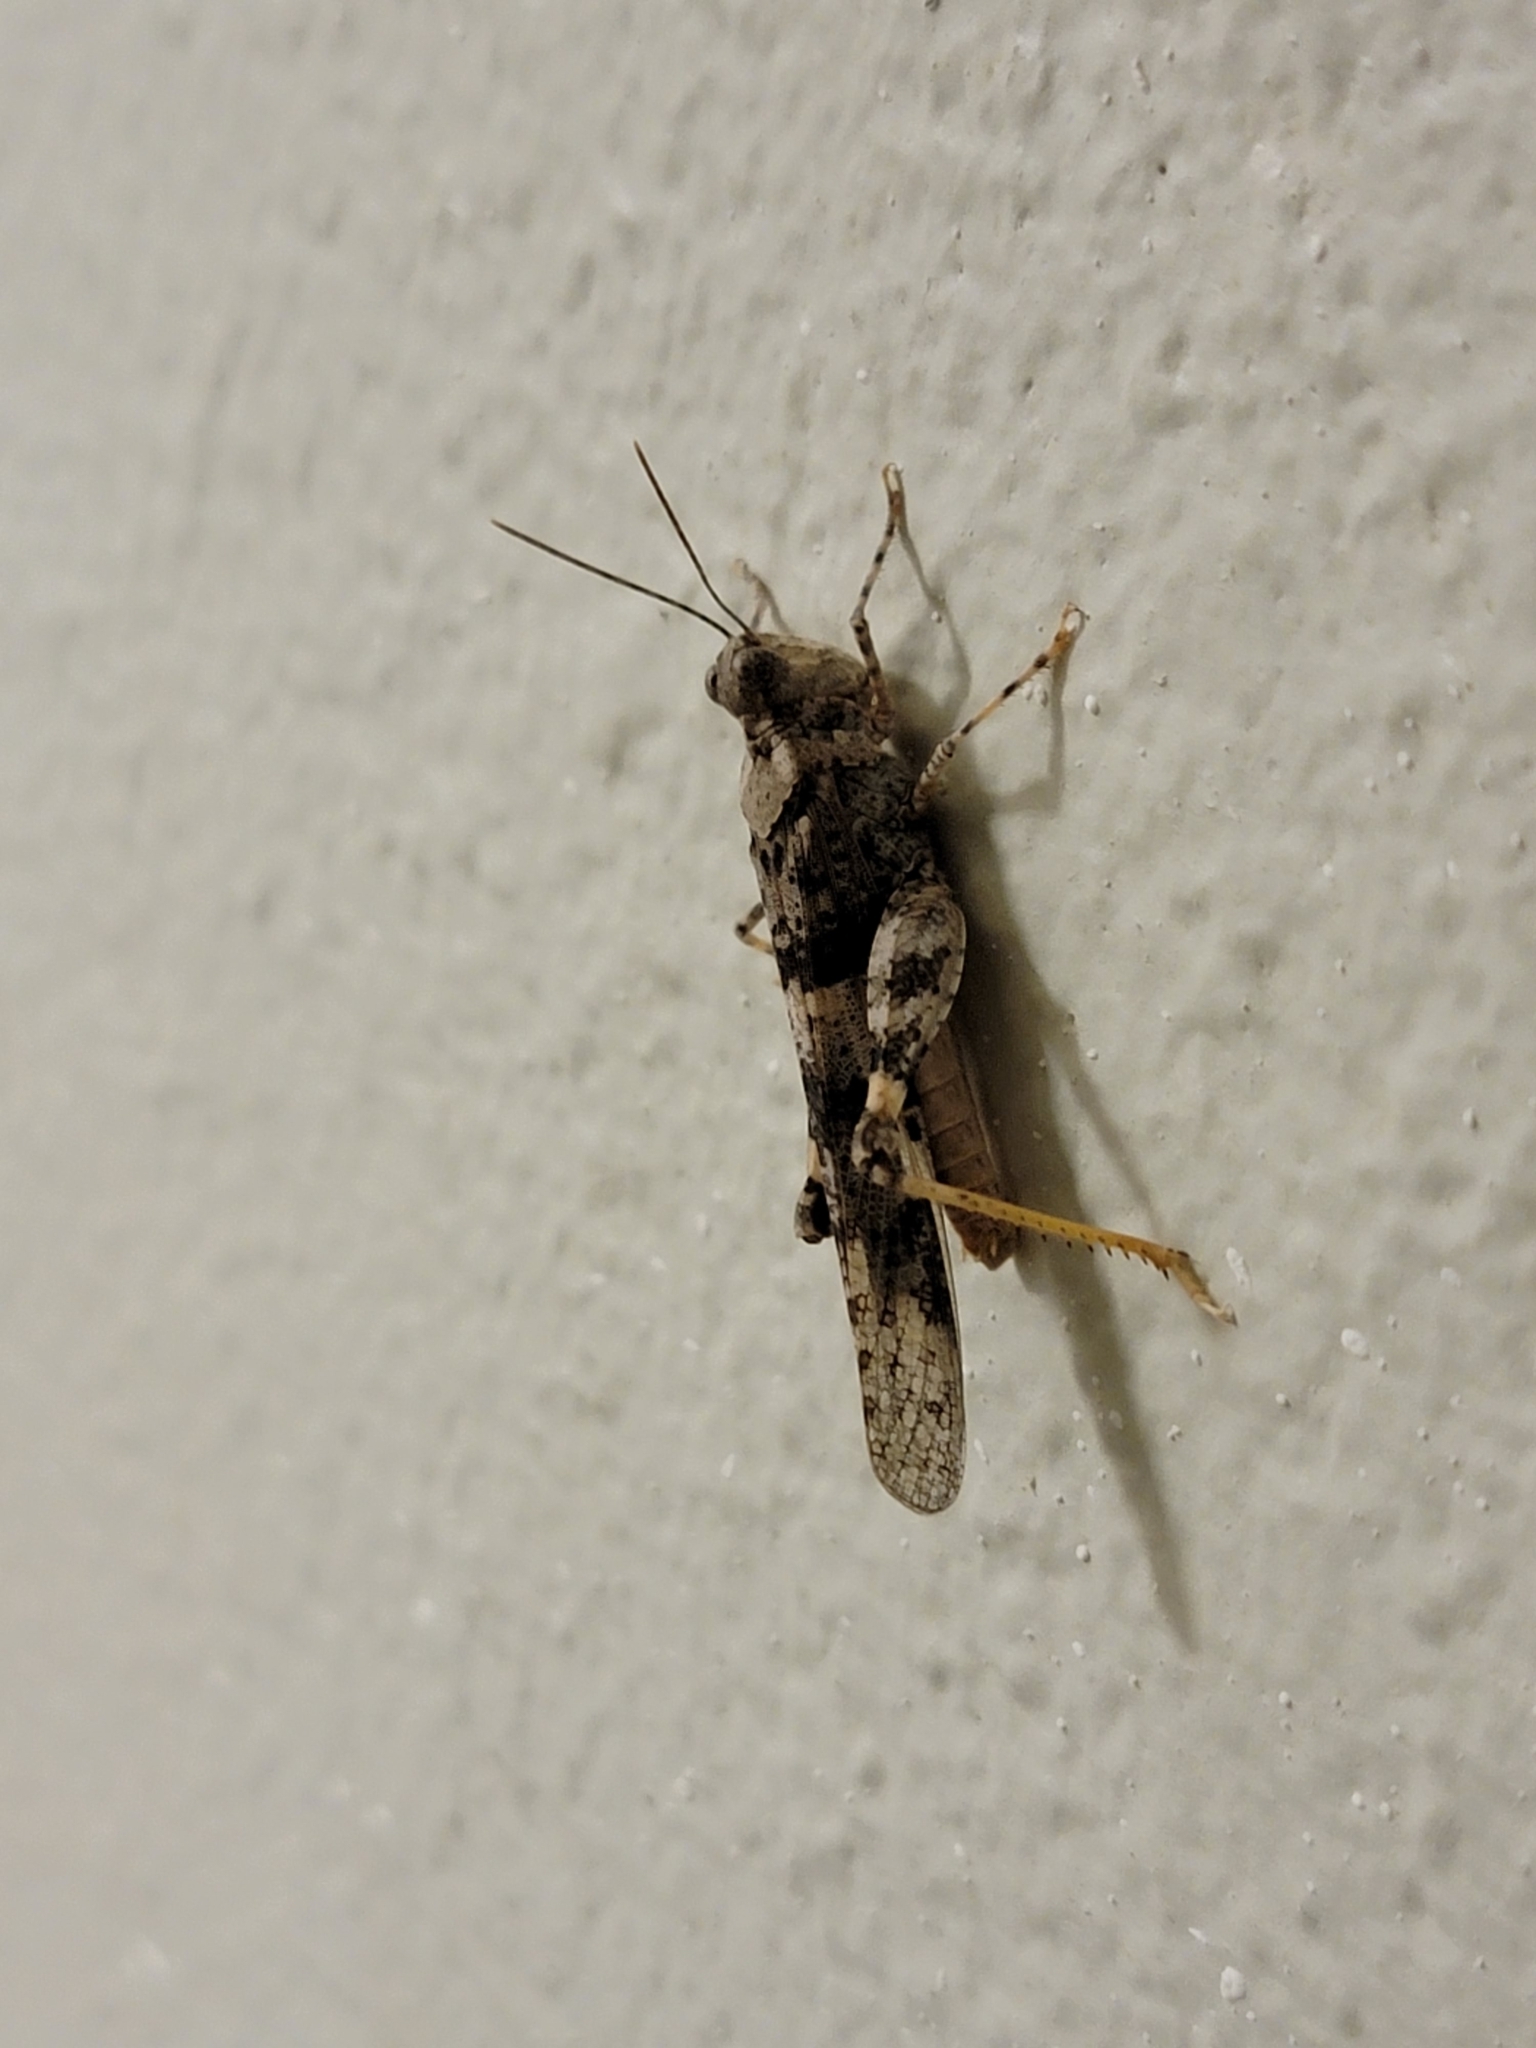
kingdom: Animalia
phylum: Arthropoda
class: Insecta
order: Orthoptera
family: Acrididae
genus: Trimerotropis
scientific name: Trimerotropis pallidipennis
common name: Pallid-winged grasshopper
